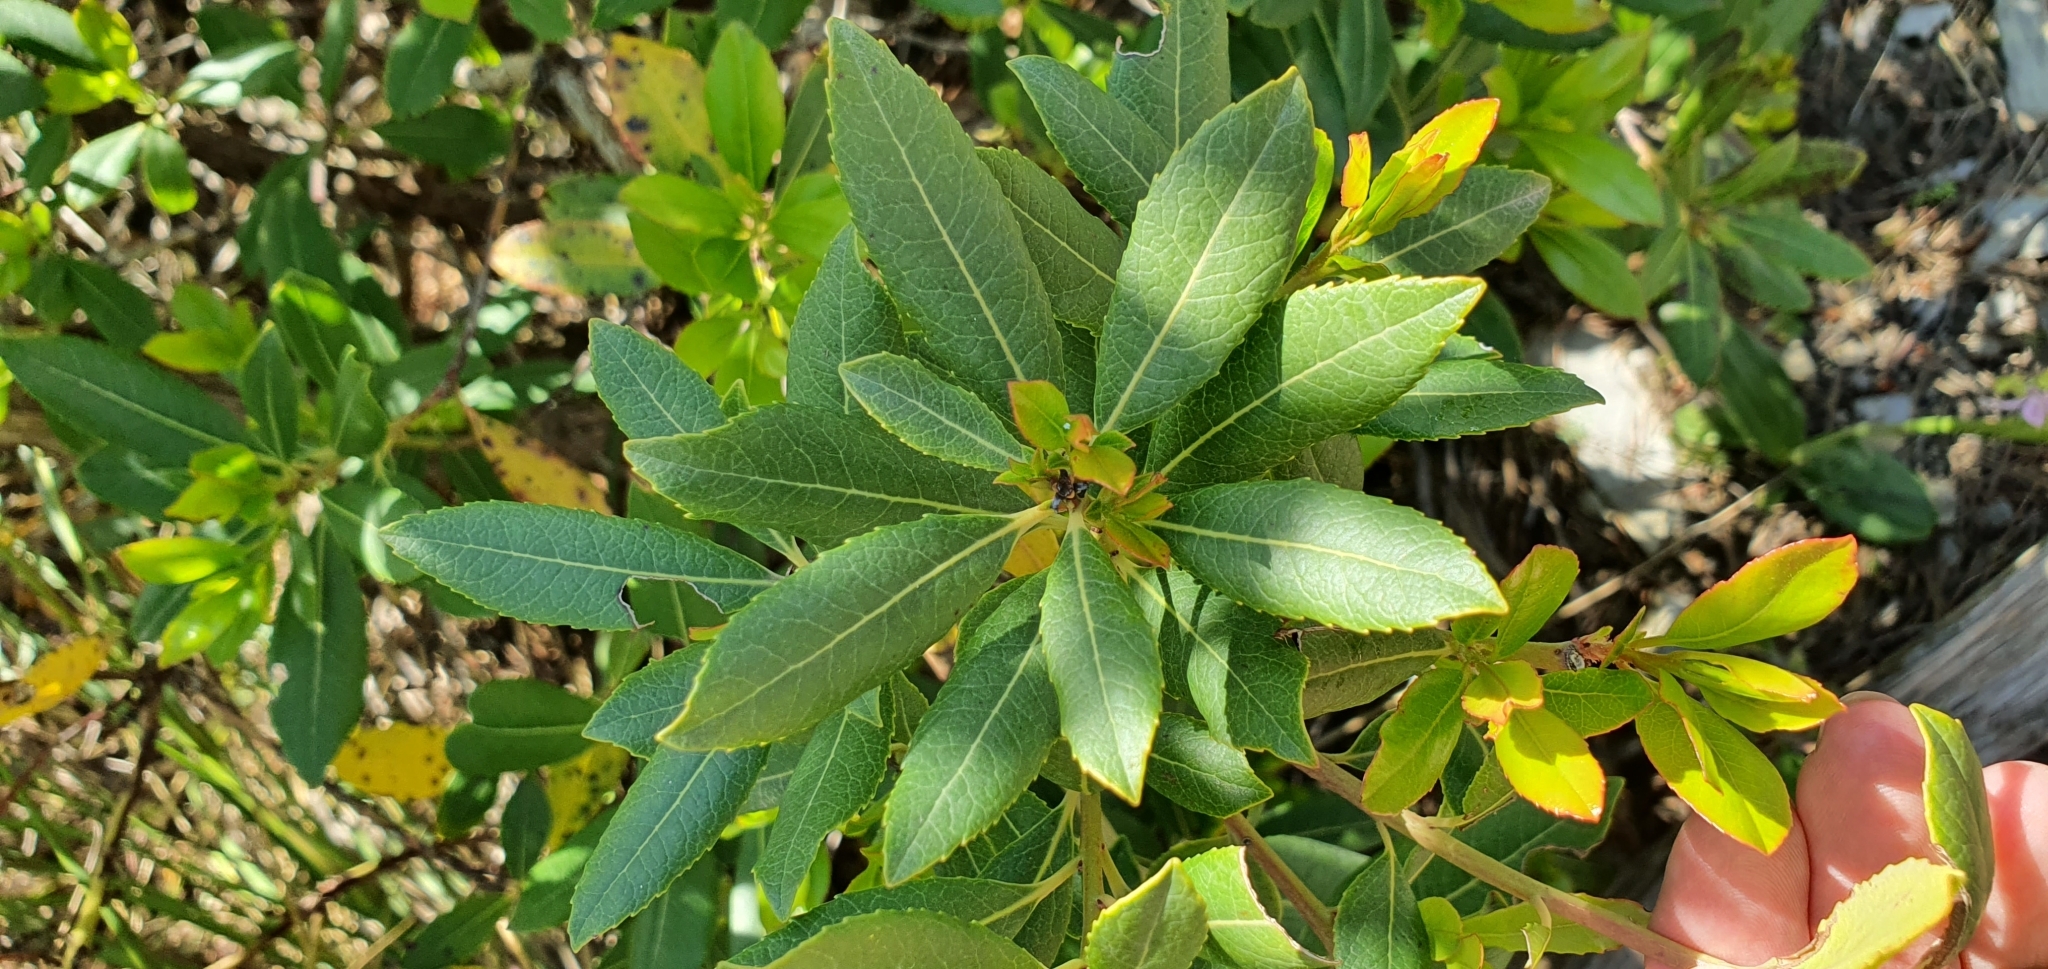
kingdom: Plantae
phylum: Tracheophyta
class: Magnoliopsida
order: Ericales
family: Ericaceae
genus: Arbutus
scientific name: Arbutus unedo
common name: Strawberry-tree
